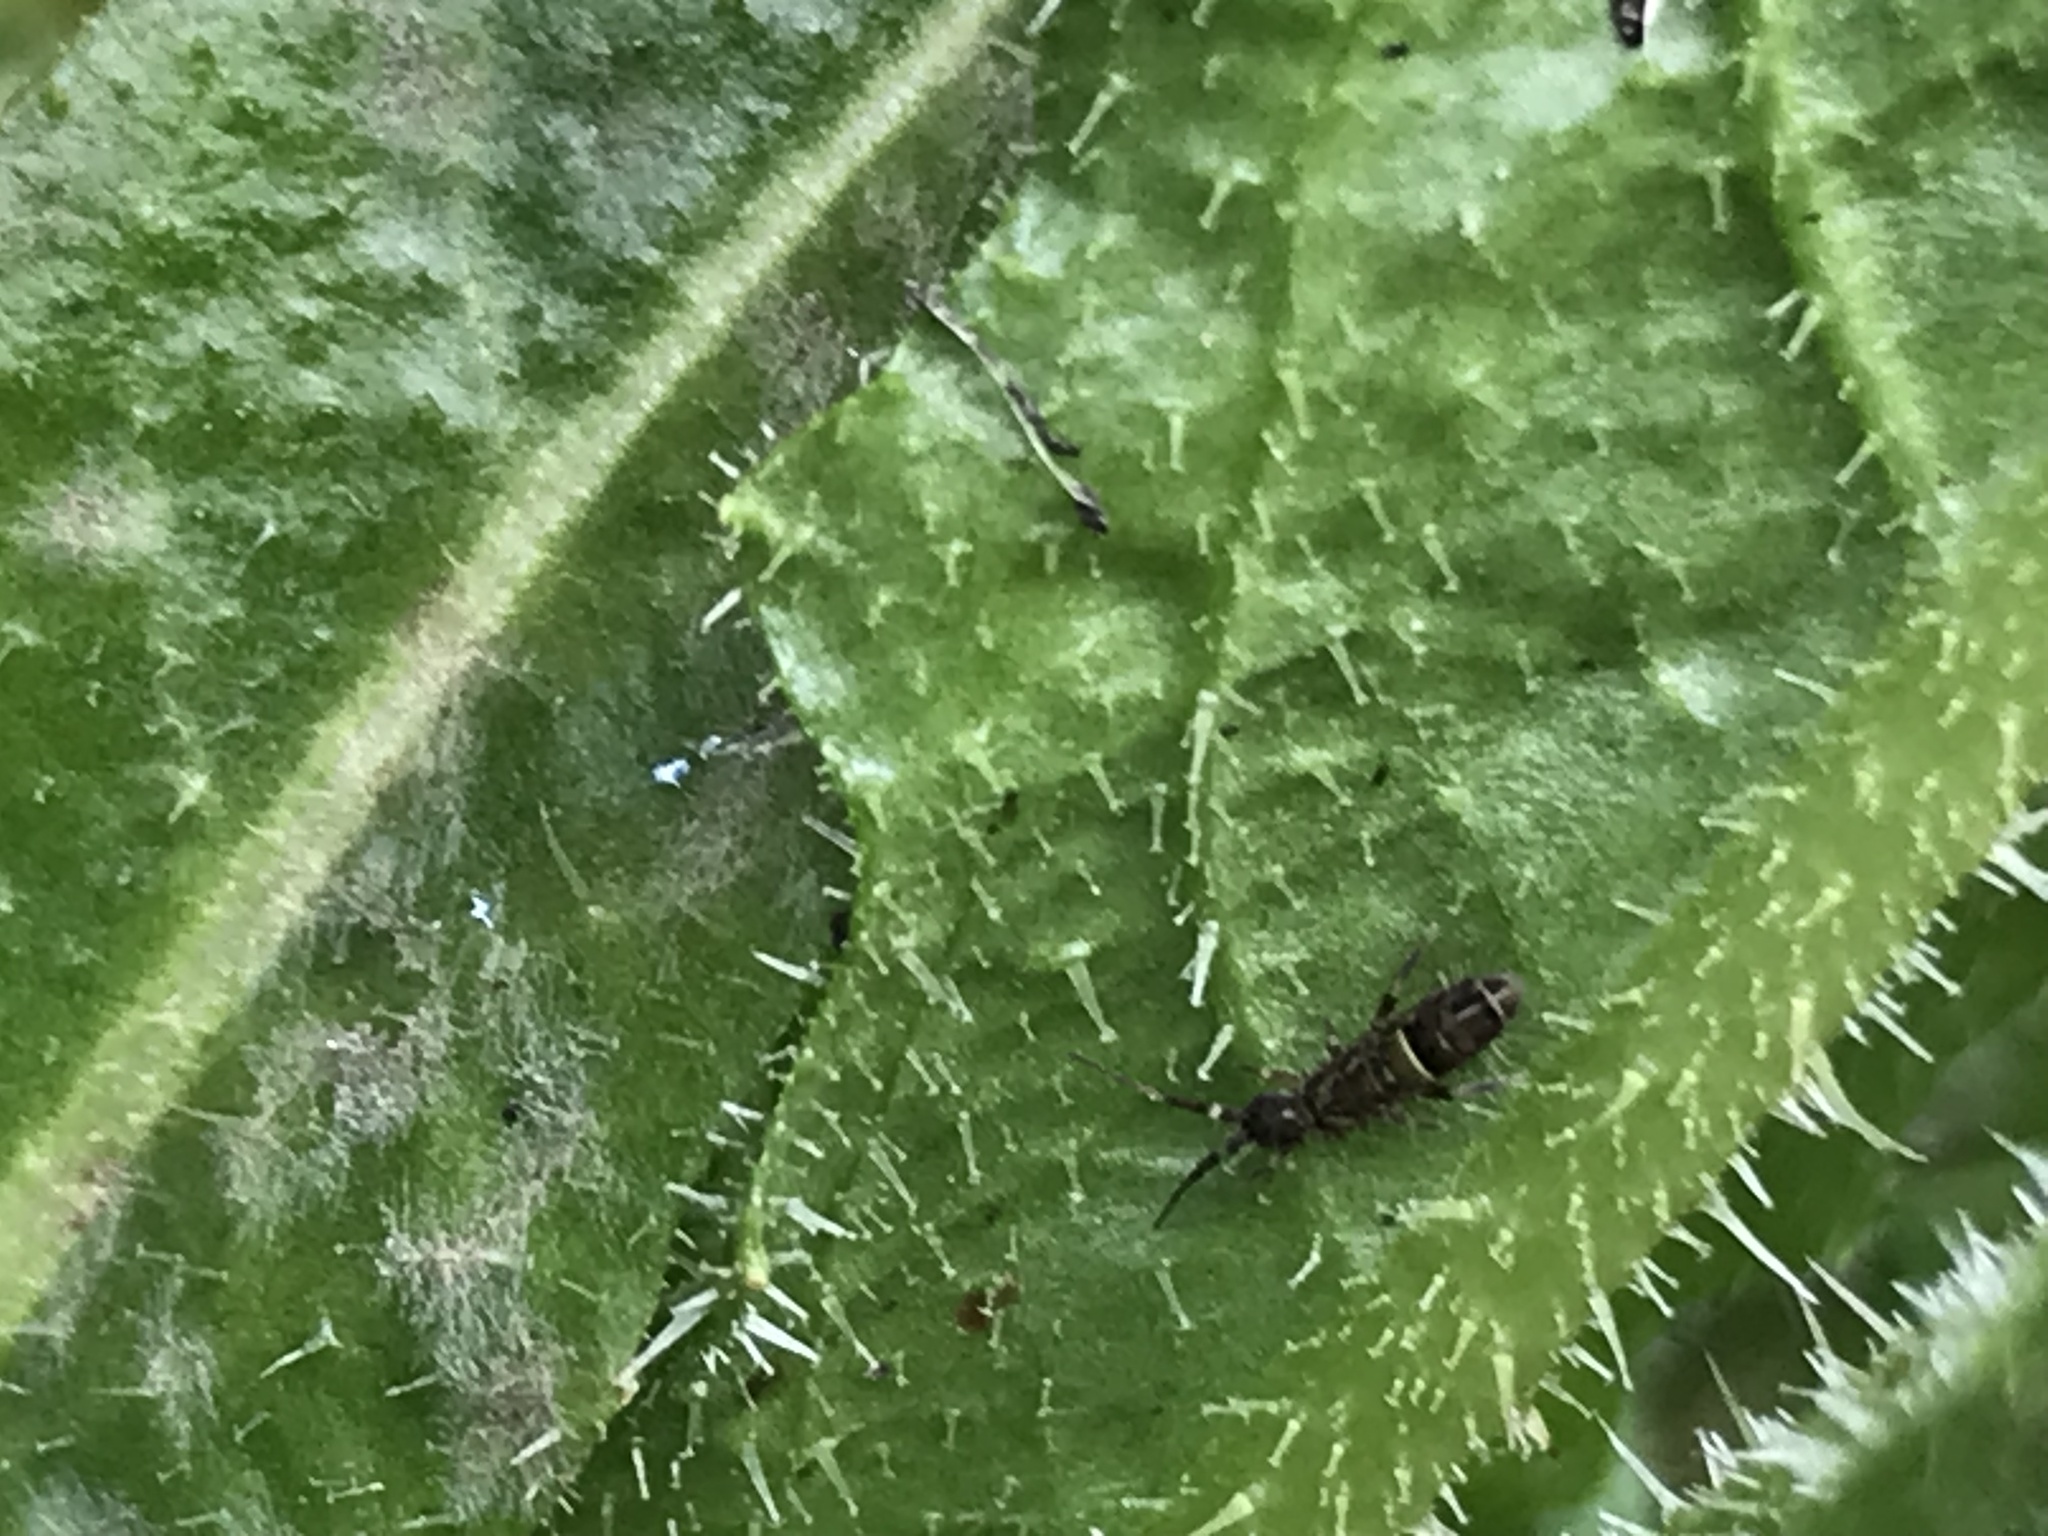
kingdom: Animalia
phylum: Arthropoda
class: Collembola
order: Entomobryomorpha
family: Orchesellidae
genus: Orchesella
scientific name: Orchesella cincta
